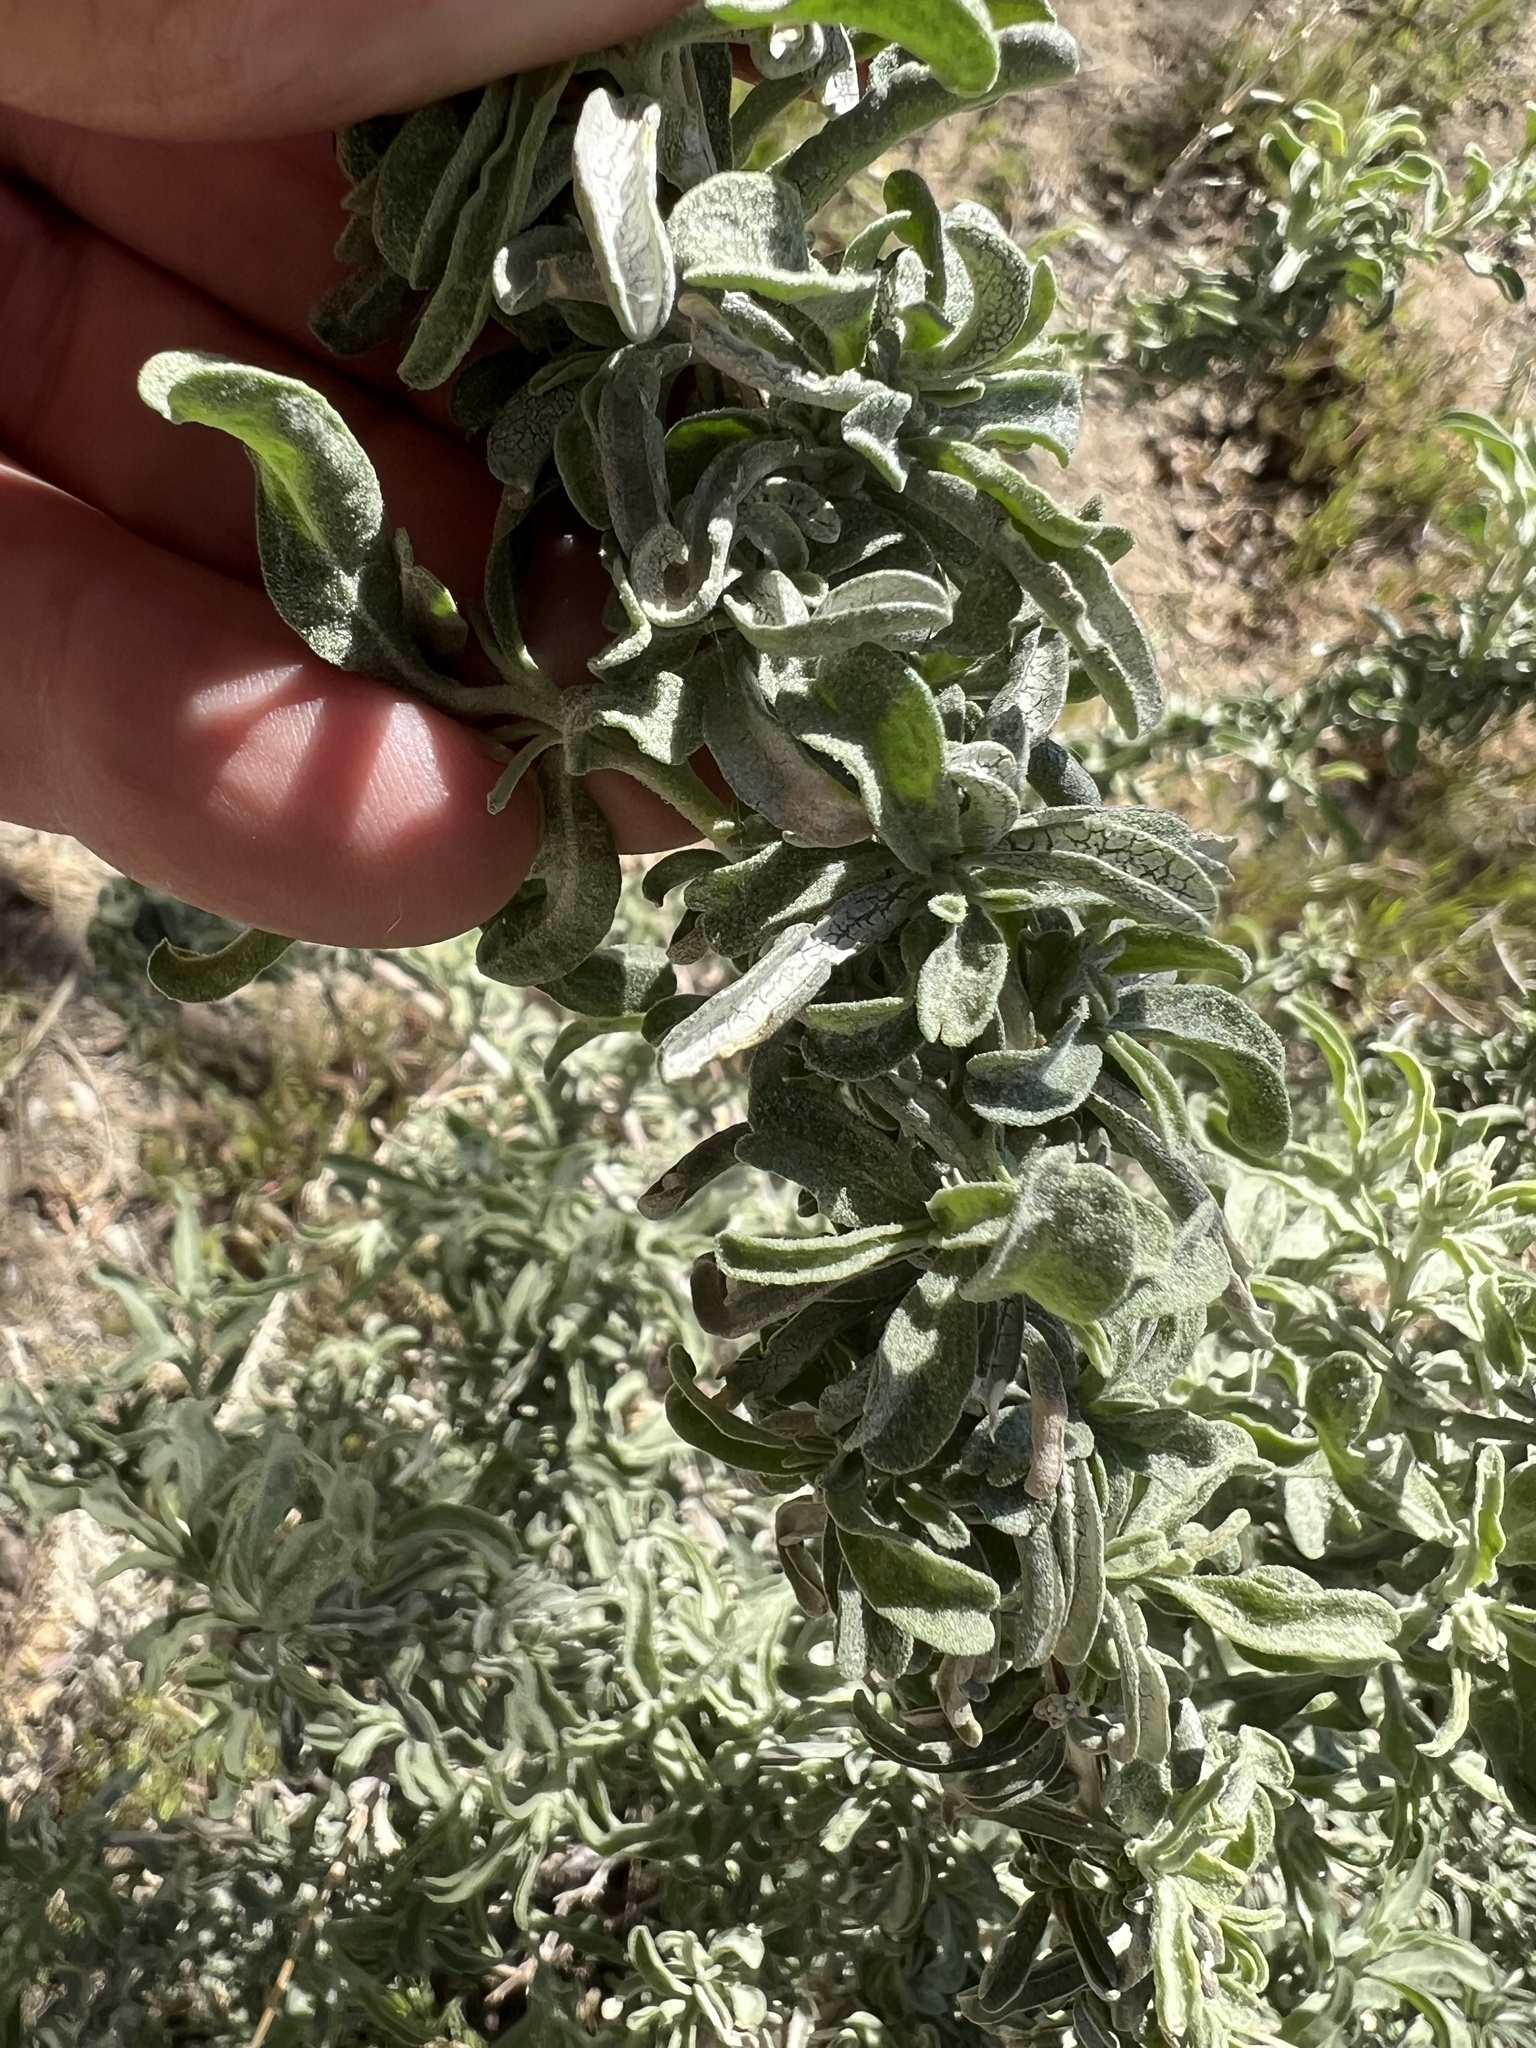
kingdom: Plantae
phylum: Tracheophyta
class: Magnoliopsida
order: Caryophyllales
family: Amaranthaceae
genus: Atriplex
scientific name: Atriplex canescens
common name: Four-wing saltbush
